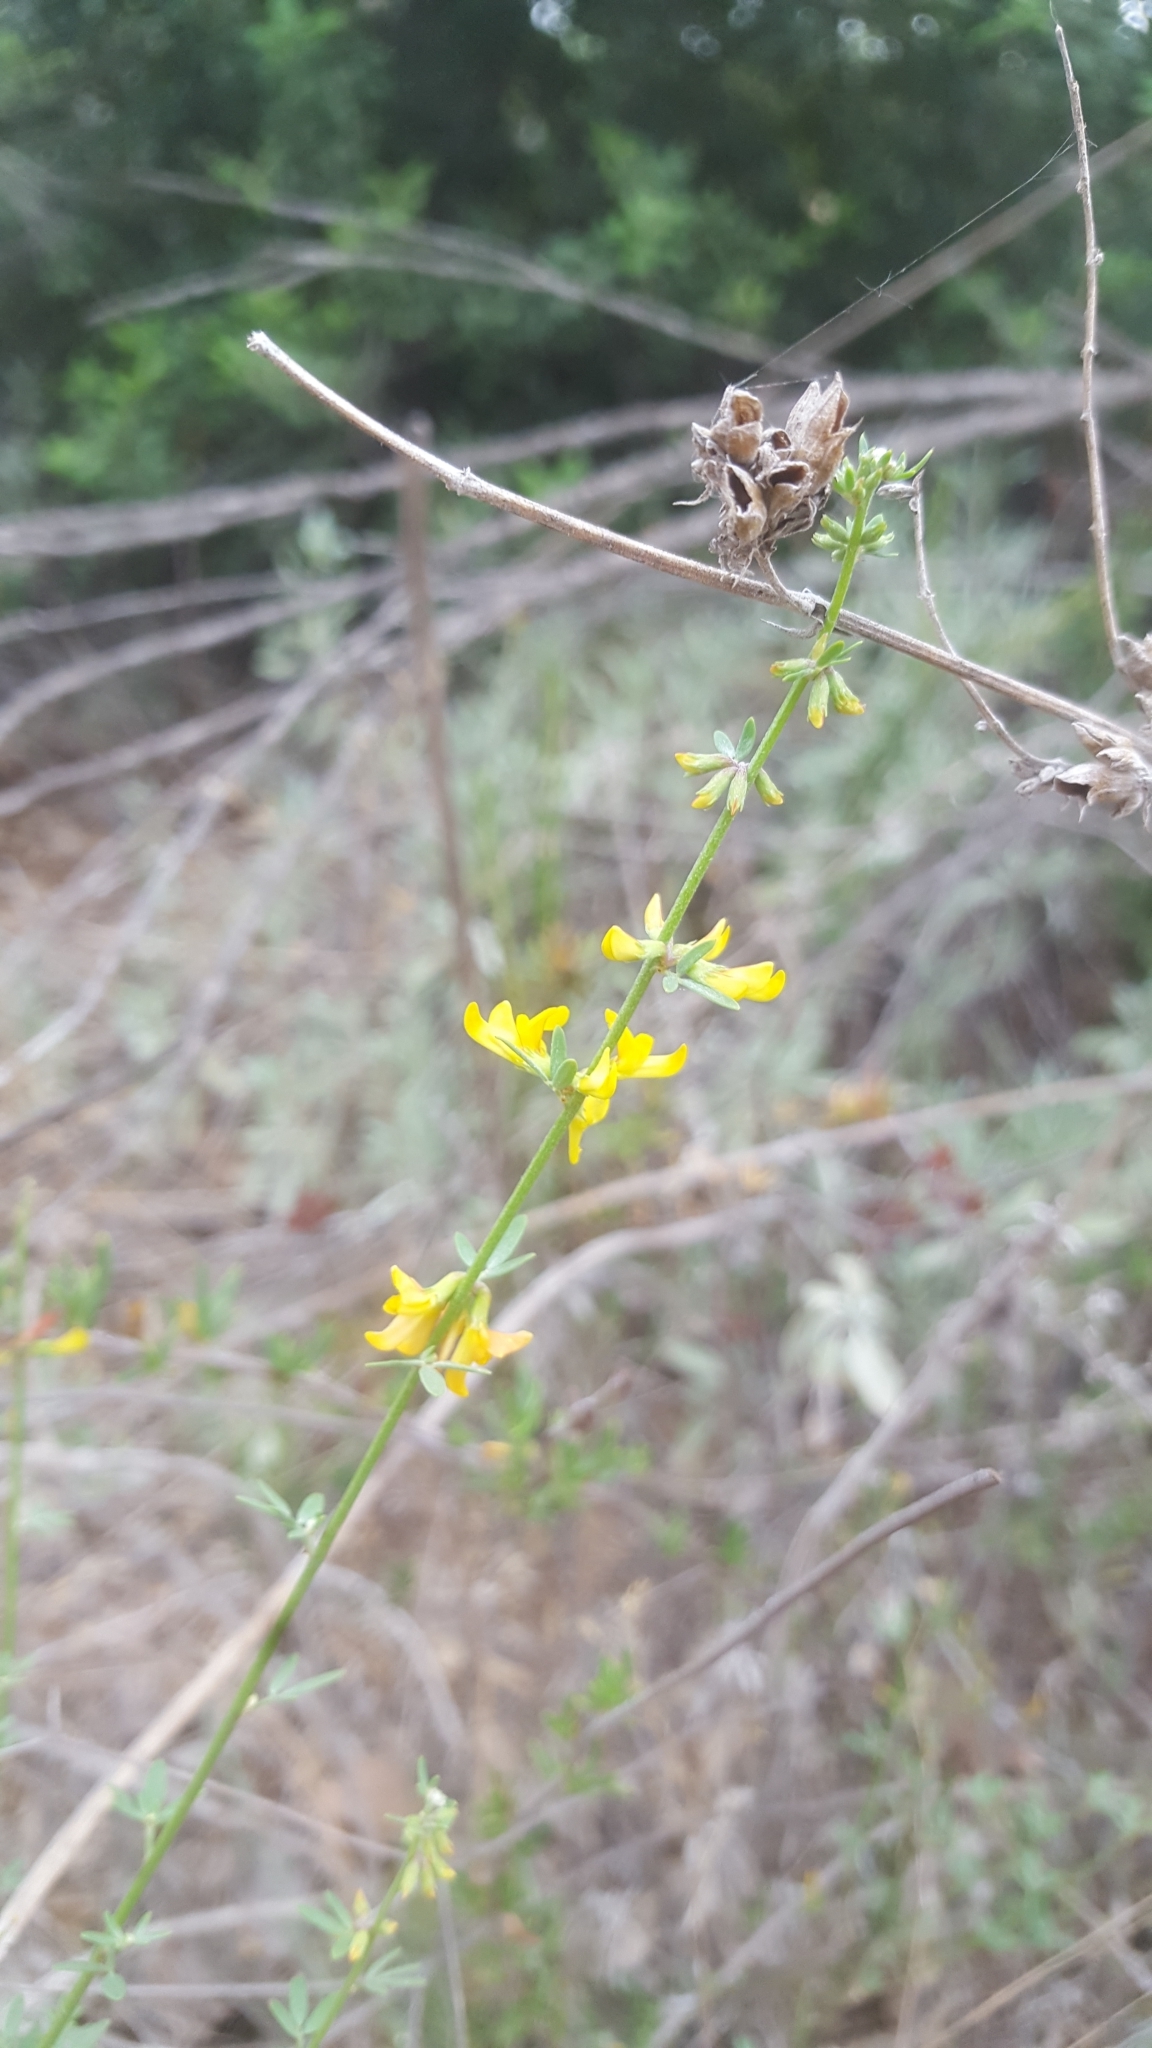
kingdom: Plantae
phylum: Tracheophyta
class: Magnoliopsida
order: Fabales
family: Fabaceae
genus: Acmispon
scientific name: Acmispon glaber
